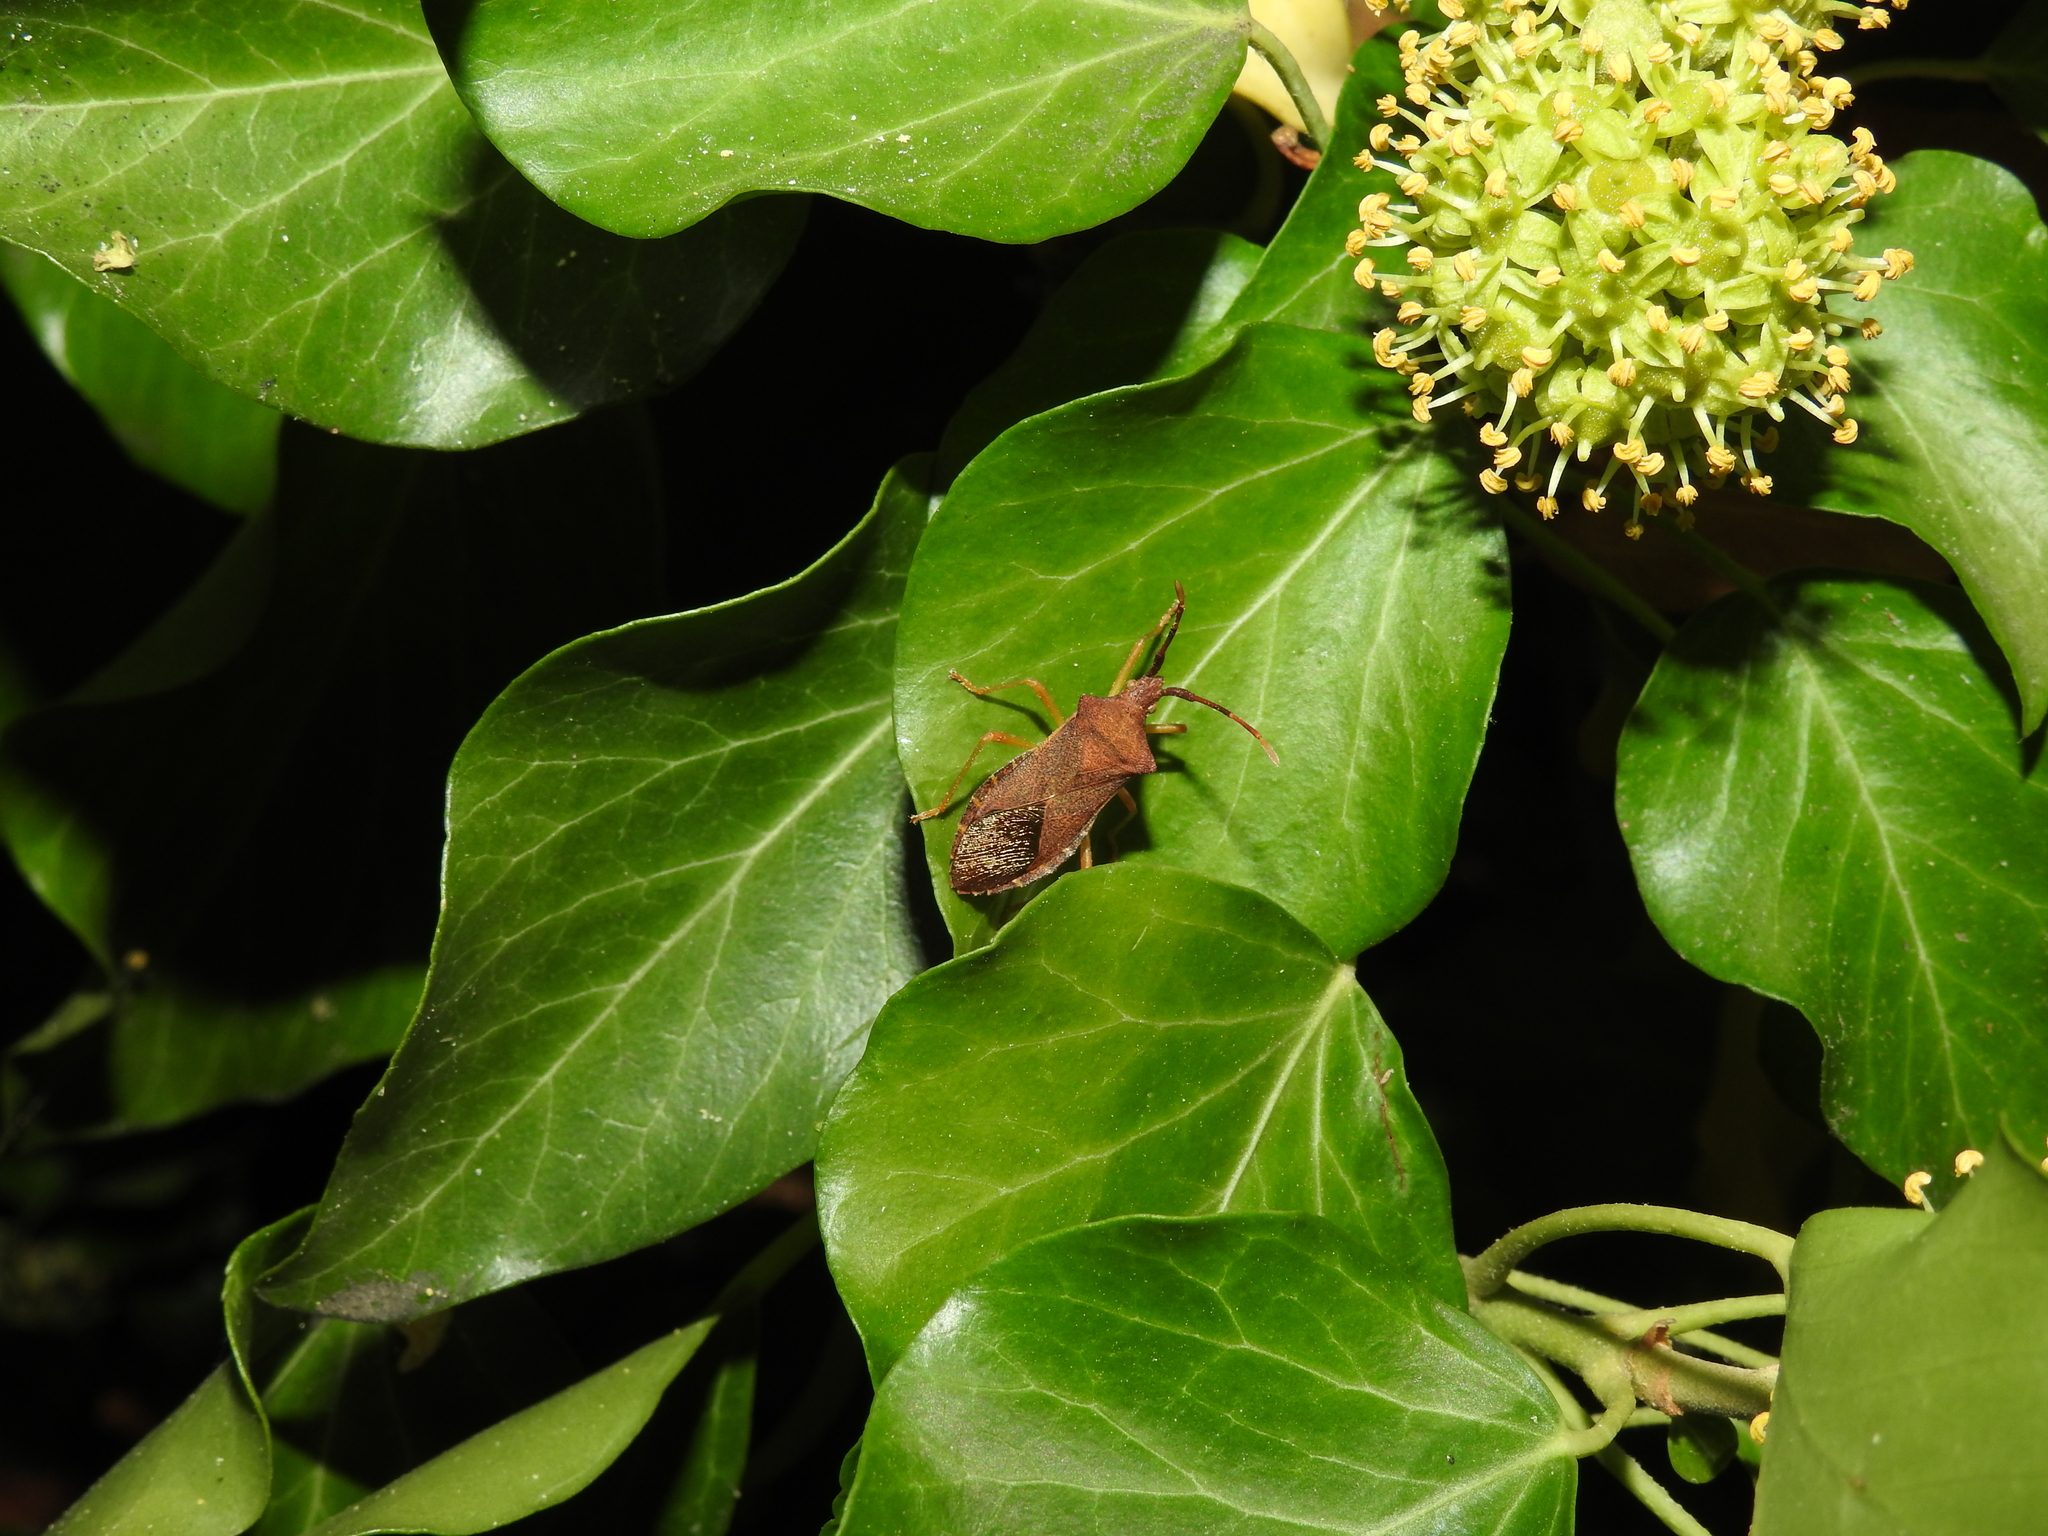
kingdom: Animalia
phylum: Arthropoda
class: Insecta
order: Hemiptera
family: Coreidae
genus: Gonocerus
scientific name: Gonocerus acuteangulatus
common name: Box bug
